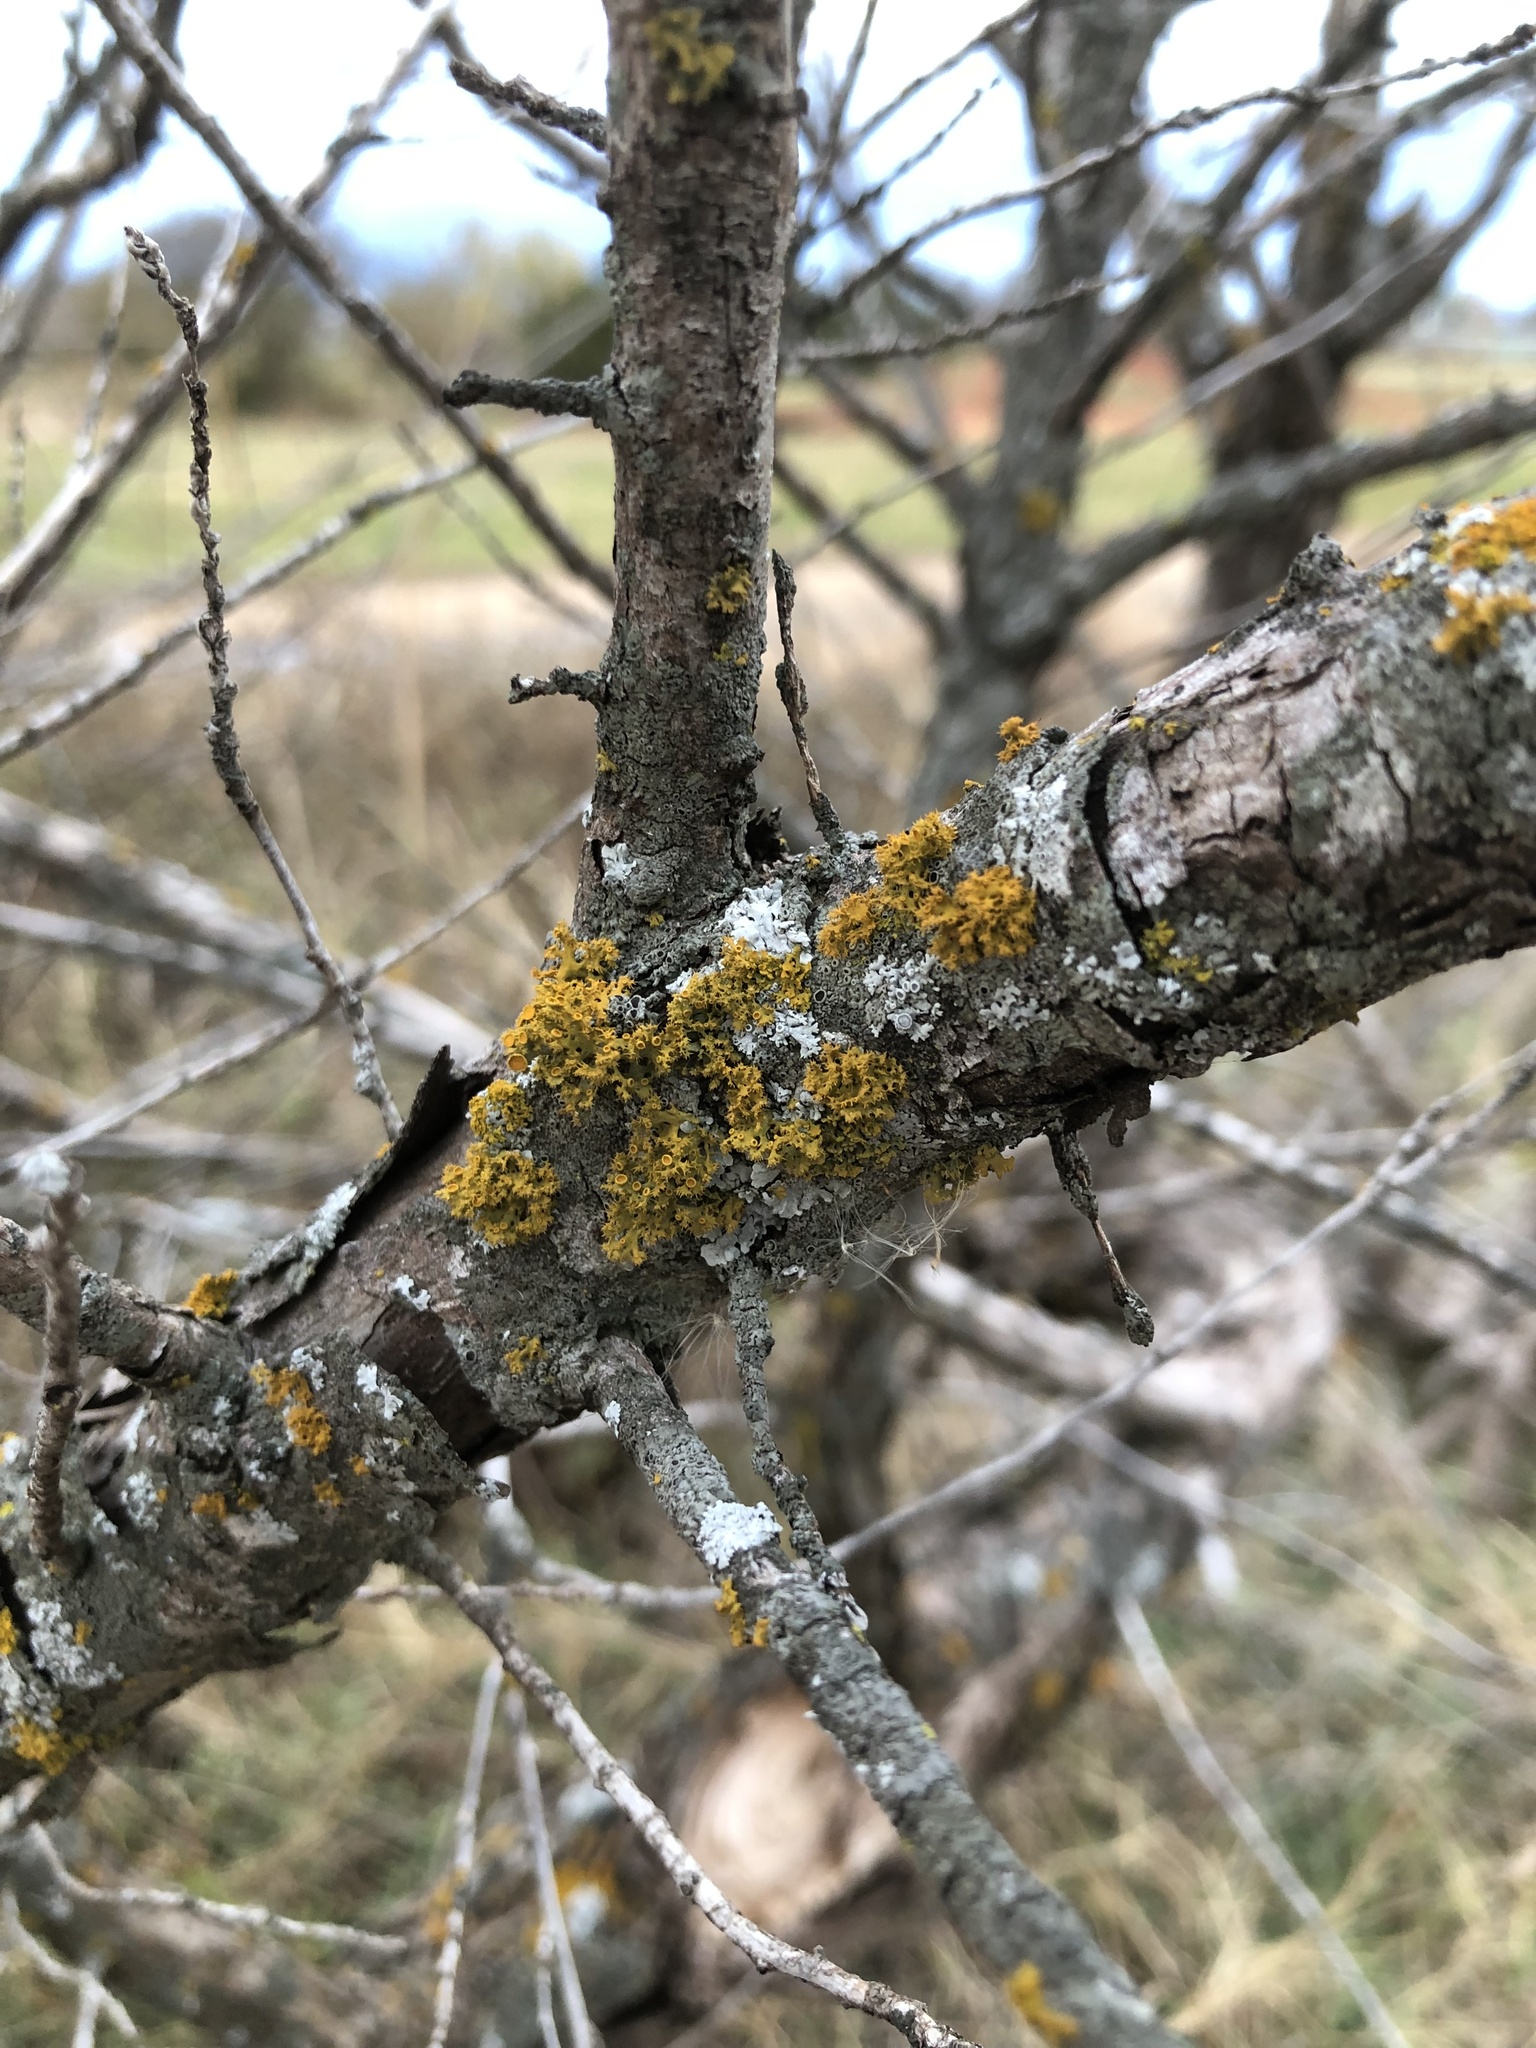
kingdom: Fungi
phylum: Ascomycota
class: Lecanoromycetes
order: Teloschistales
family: Teloschistaceae
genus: Niorma
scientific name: Niorma chrysophthalma
